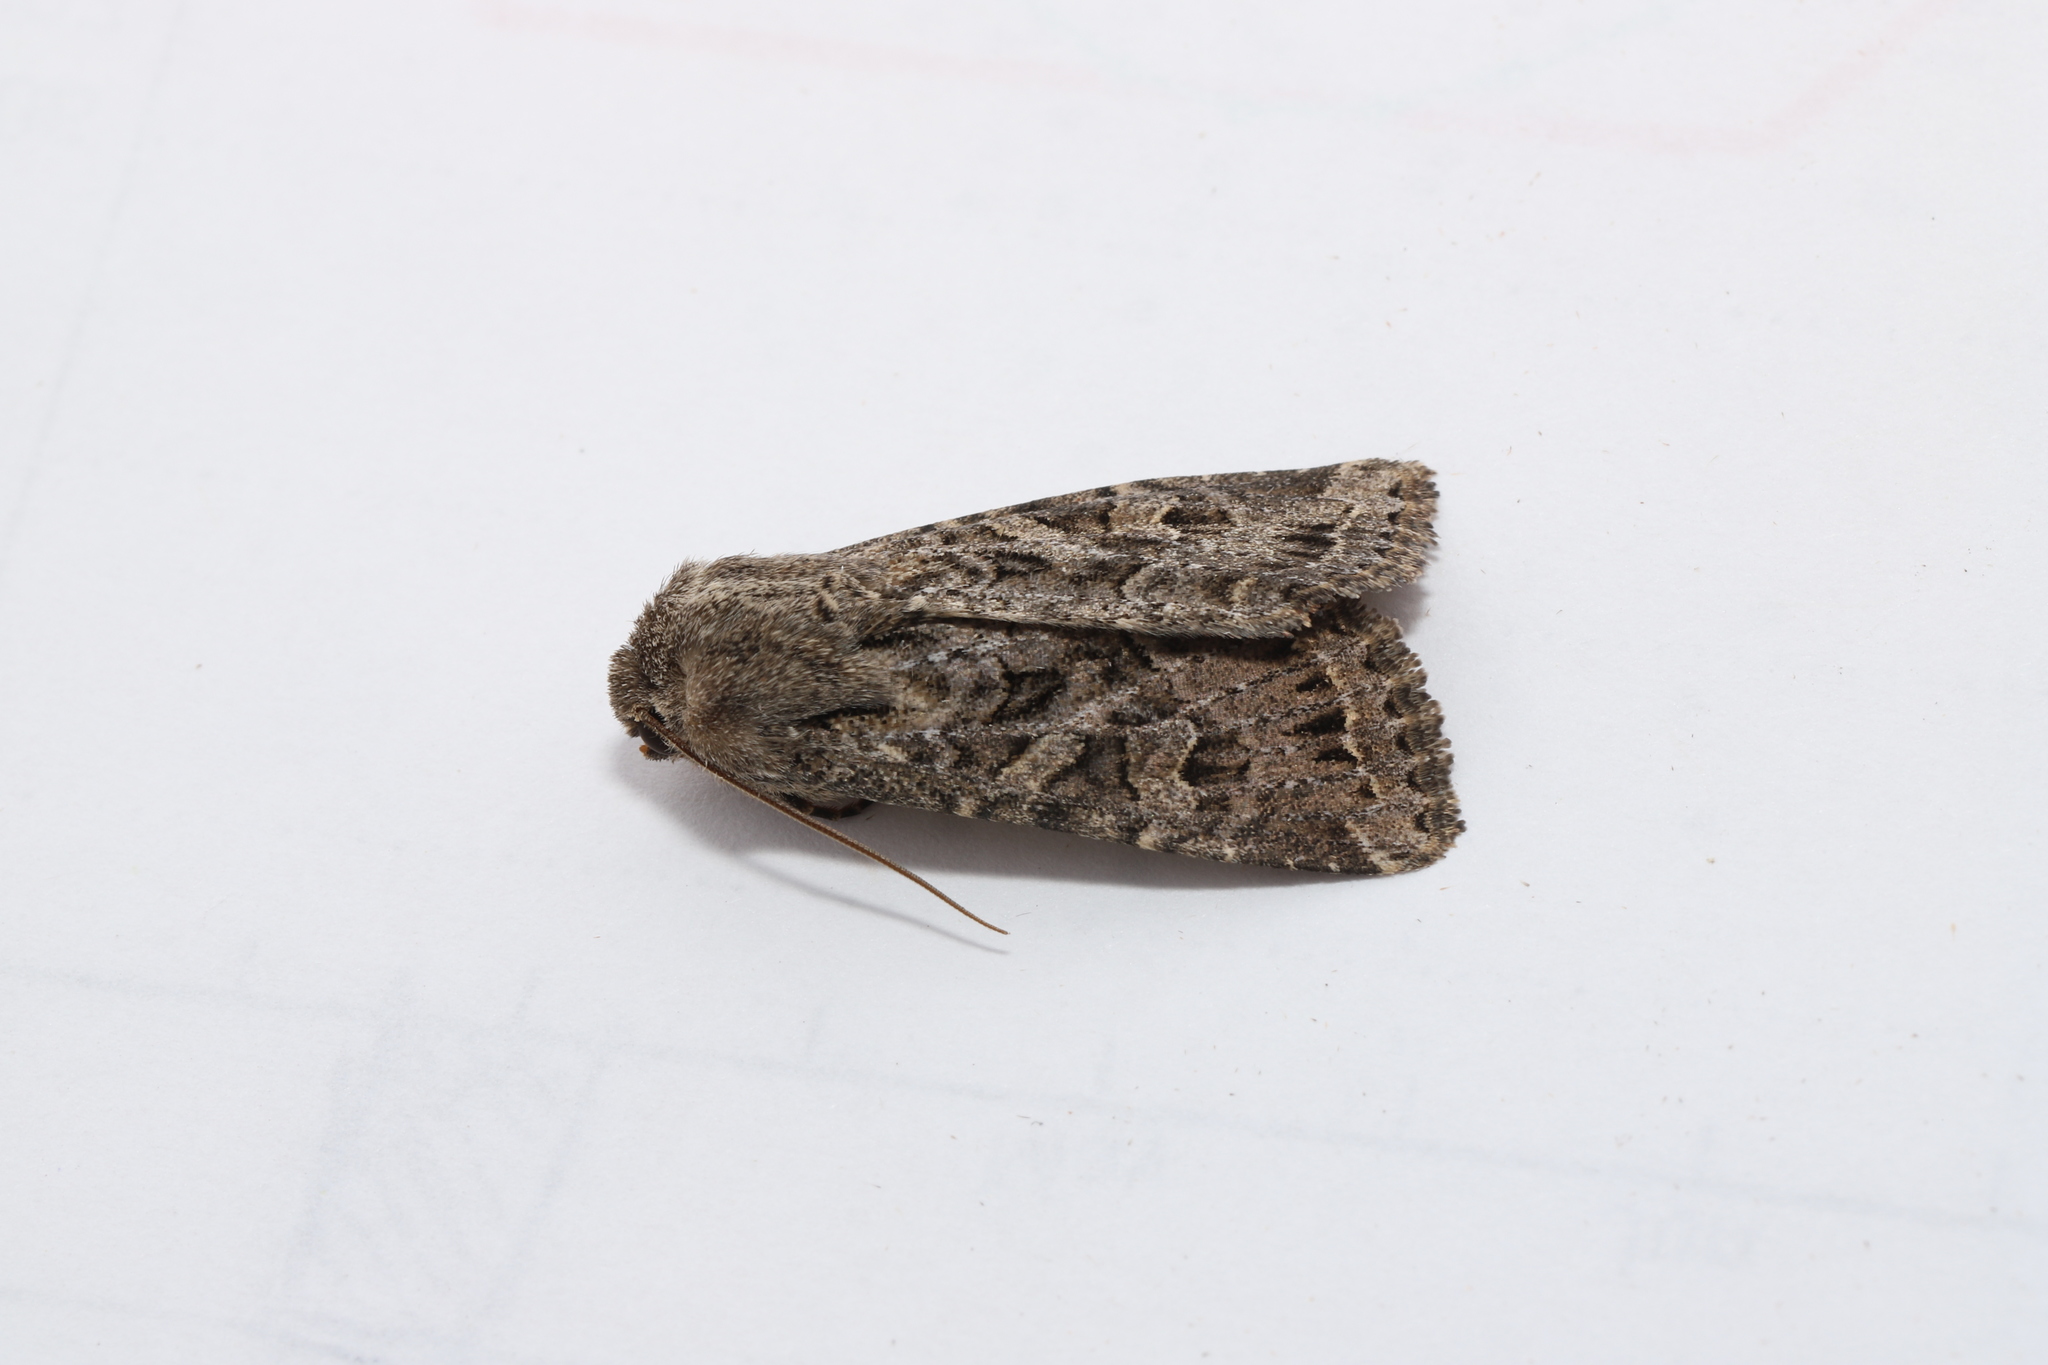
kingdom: Animalia
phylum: Arthropoda
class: Insecta
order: Lepidoptera
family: Noctuidae
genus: Apamea
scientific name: Apamea devastator
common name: Glassy cutworm
